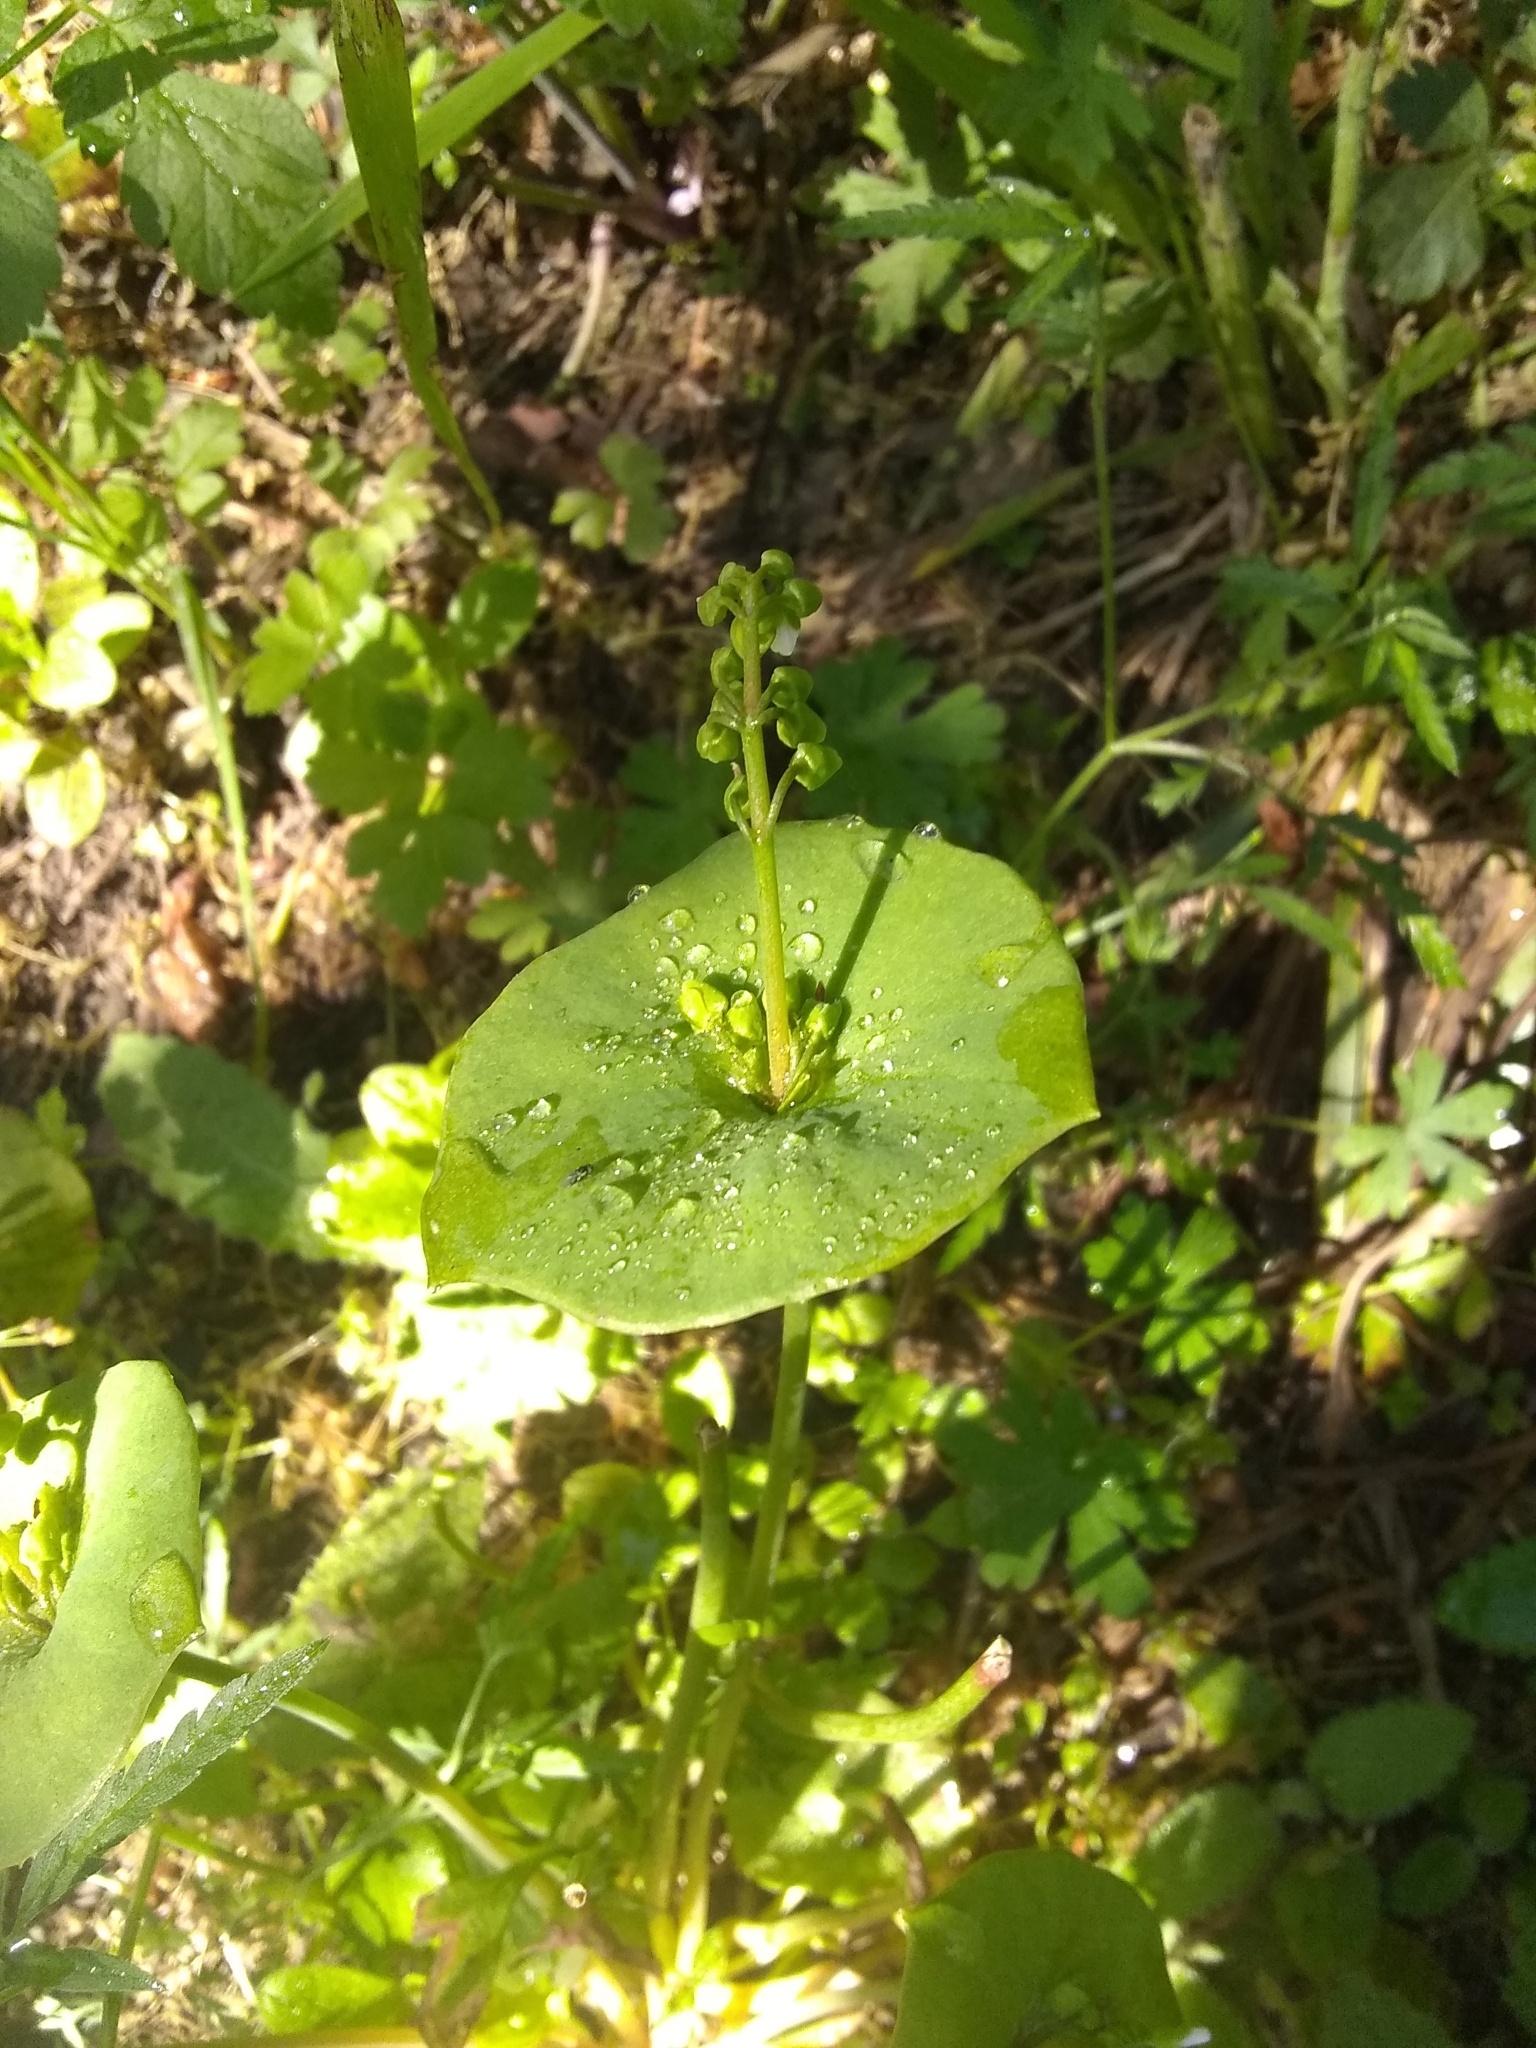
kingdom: Plantae
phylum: Tracheophyta
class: Magnoliopsida
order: Caryophyllales
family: Montiaceae
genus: Claytonia
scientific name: Claytonia perfoliata
